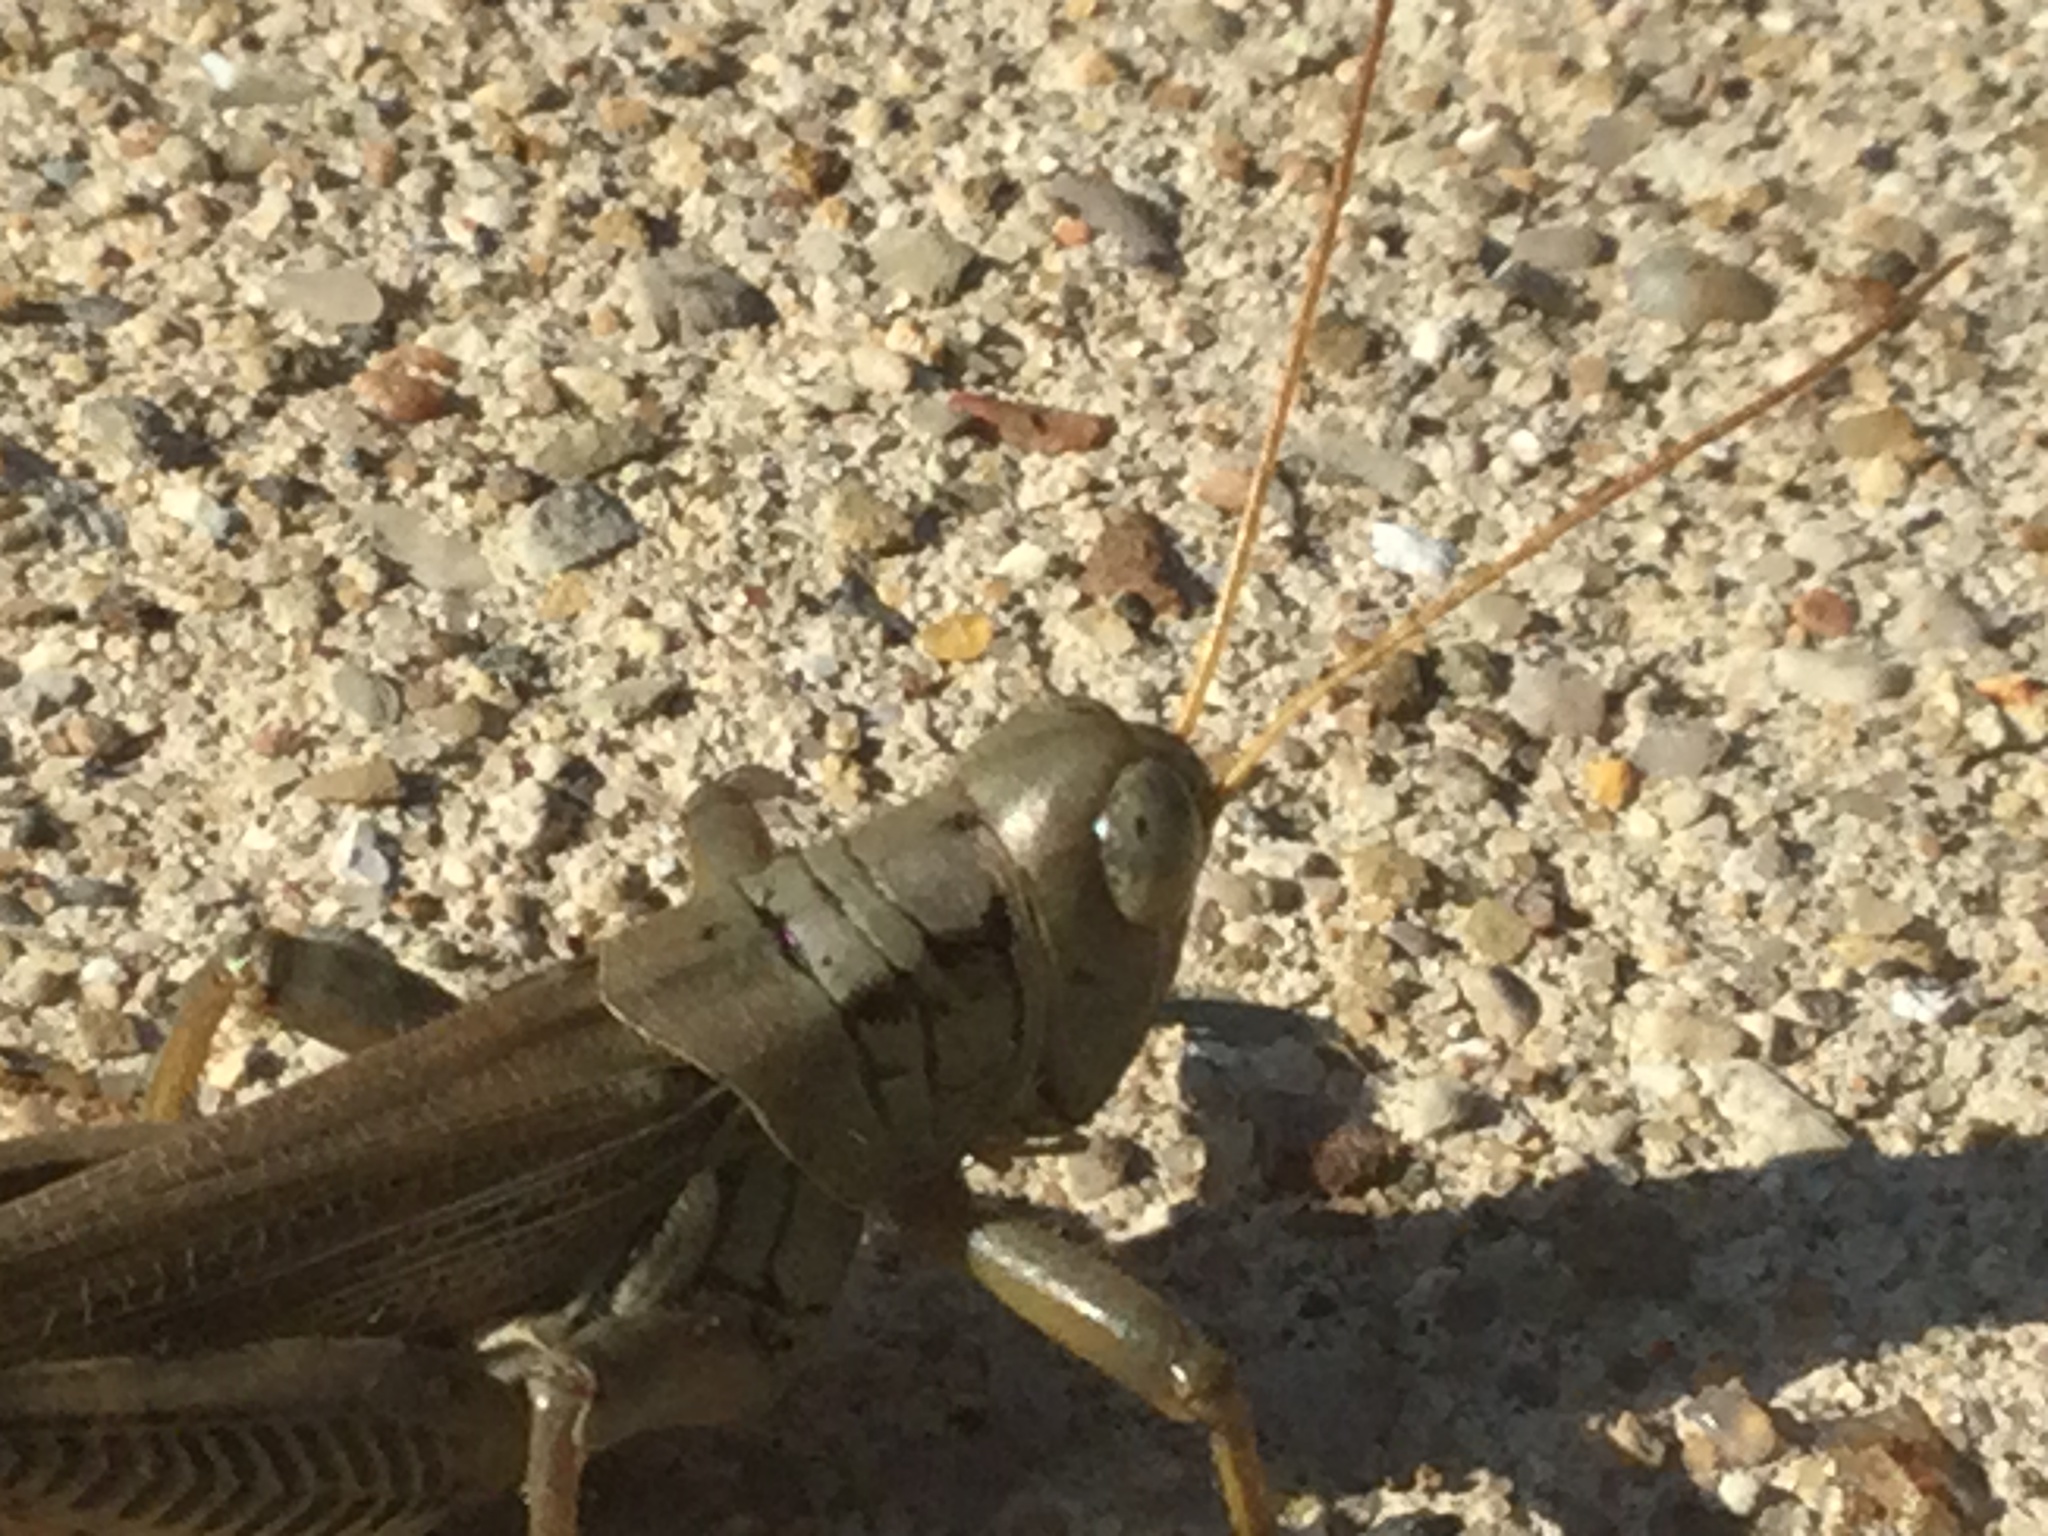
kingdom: Animalia
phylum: Arthropoda
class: Insecta
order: Orthoptera
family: Acrididae
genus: Melanoplus
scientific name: Melanoplus differentialis
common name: Differential grasshopper
